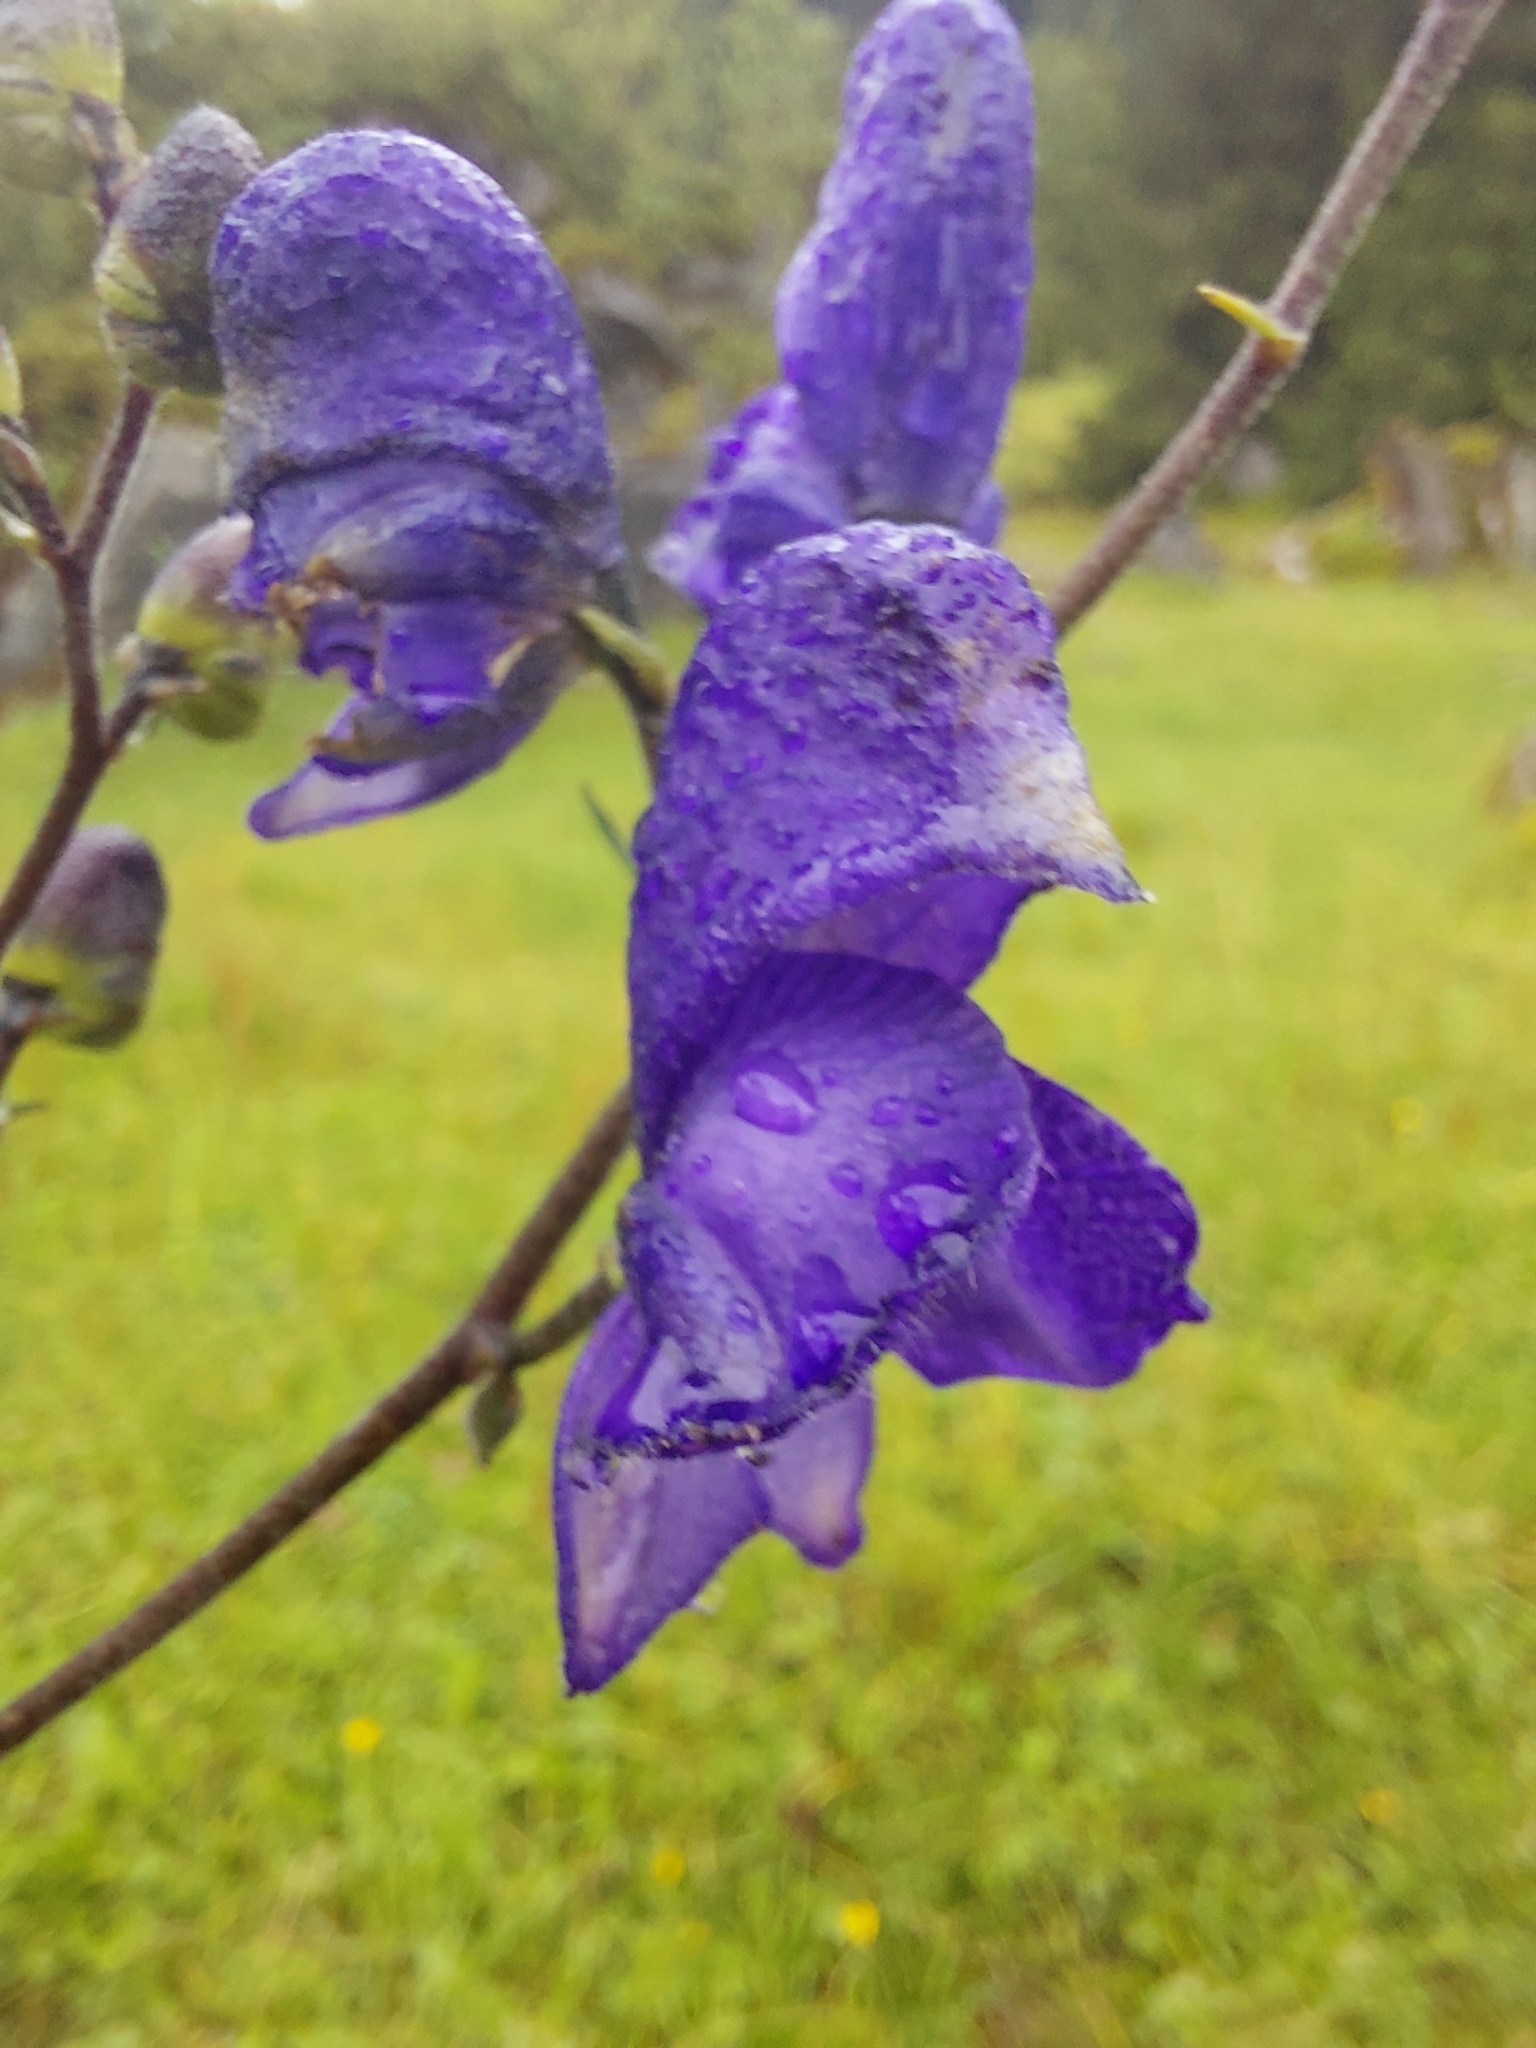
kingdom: Plantae
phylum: Tracheophyta
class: Magnoliopsida
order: Ranunculales
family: Ranunculaceae
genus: Aconitum
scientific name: Aconitum napellus
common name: Garden monkshood
